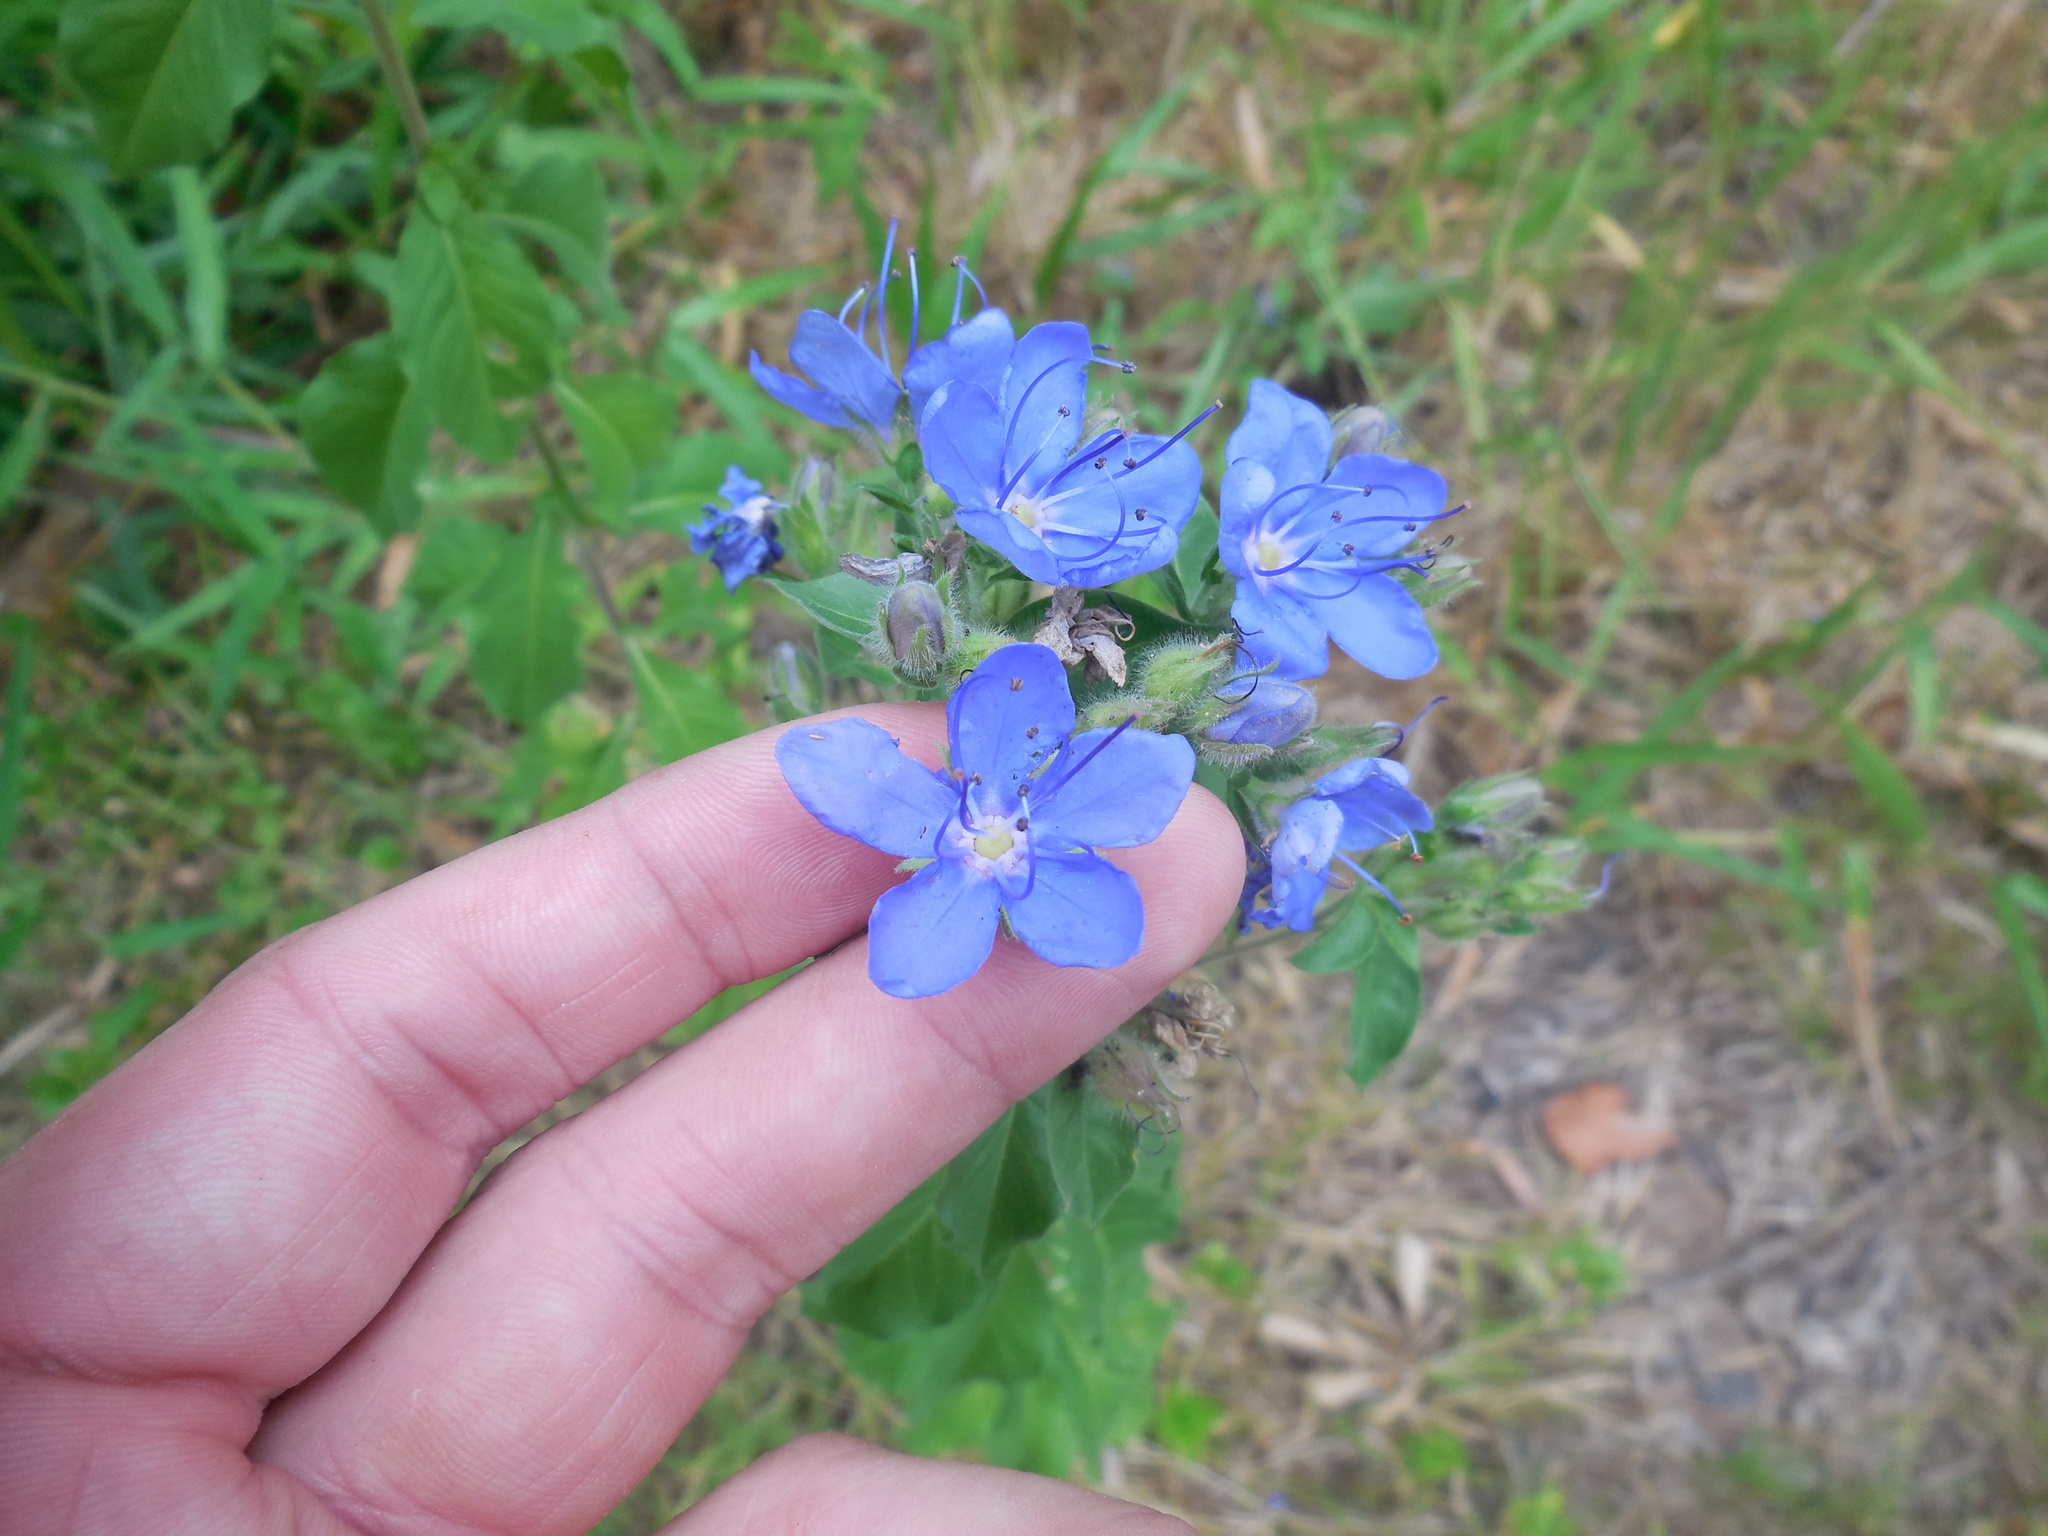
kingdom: Plantae
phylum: Tracheophyta
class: Magnoliopsida
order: Solanales
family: Hydroleaceae
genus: Hydrolea
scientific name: Hydrolea ovata
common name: Ovate false fiddleleaf
